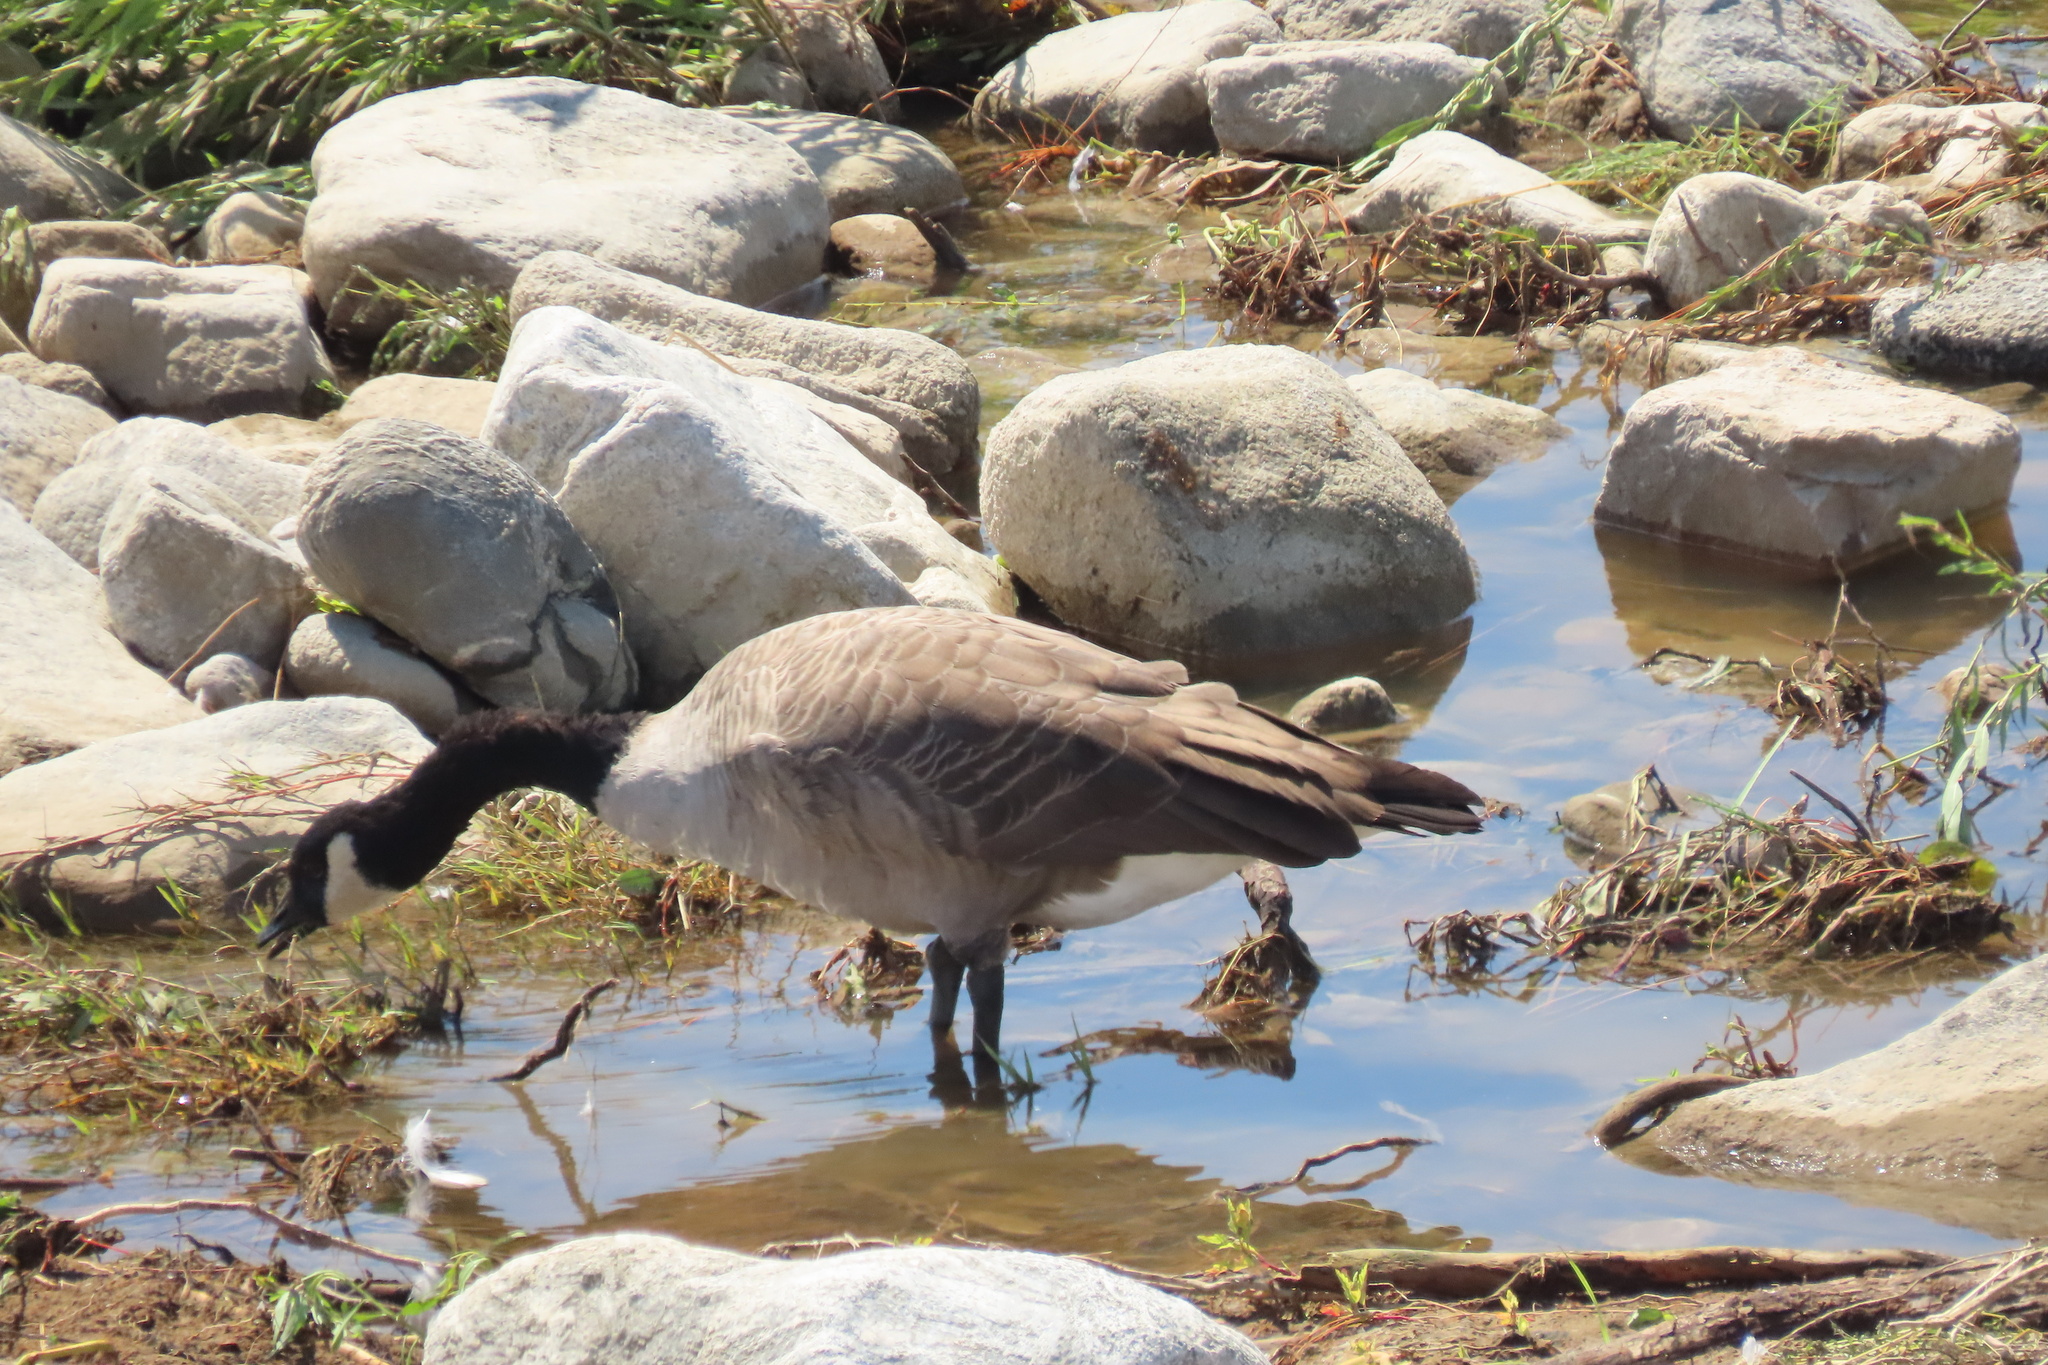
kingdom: Animalia
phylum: Chordata
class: Aves
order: Anseriformes
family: Anatidae
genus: Branta
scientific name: Branta canadensis
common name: Canada goose
